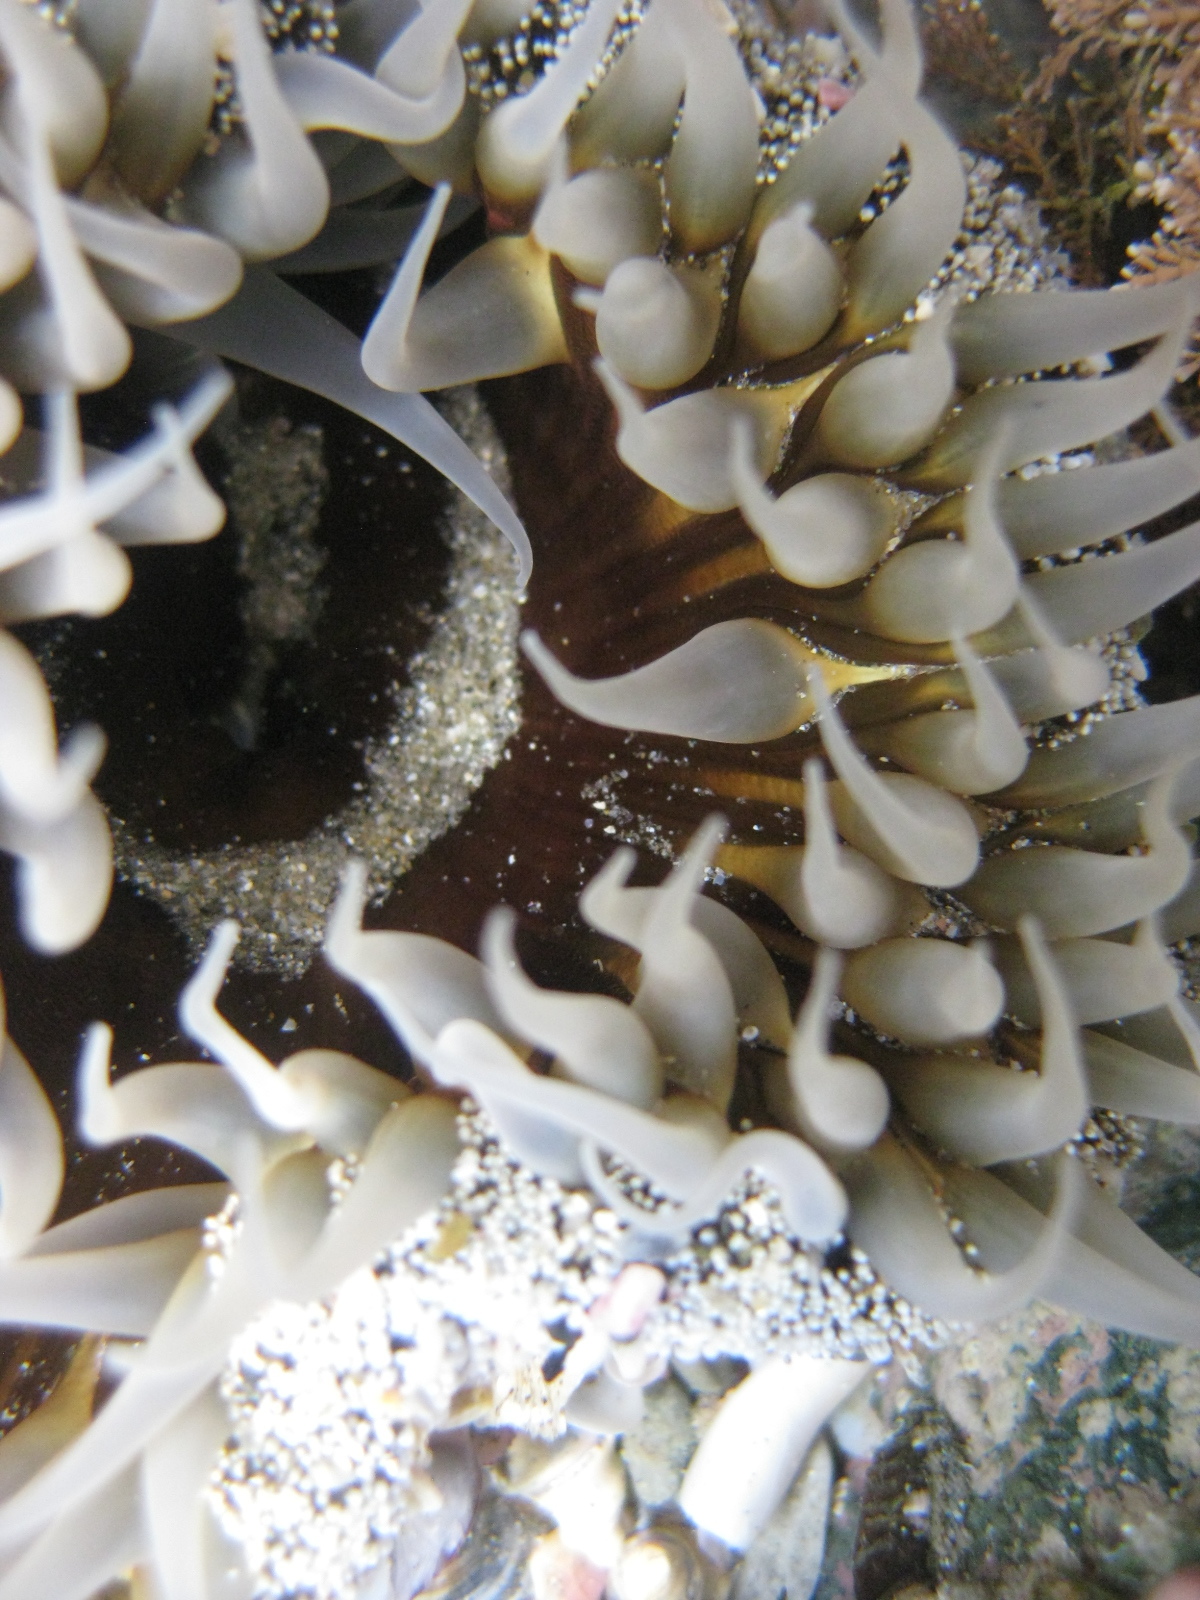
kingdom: Animalia
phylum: Cnidaria
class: Anthozoa
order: Actiniaria
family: Actiniidae
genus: Oulactis
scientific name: Oulactis magna
